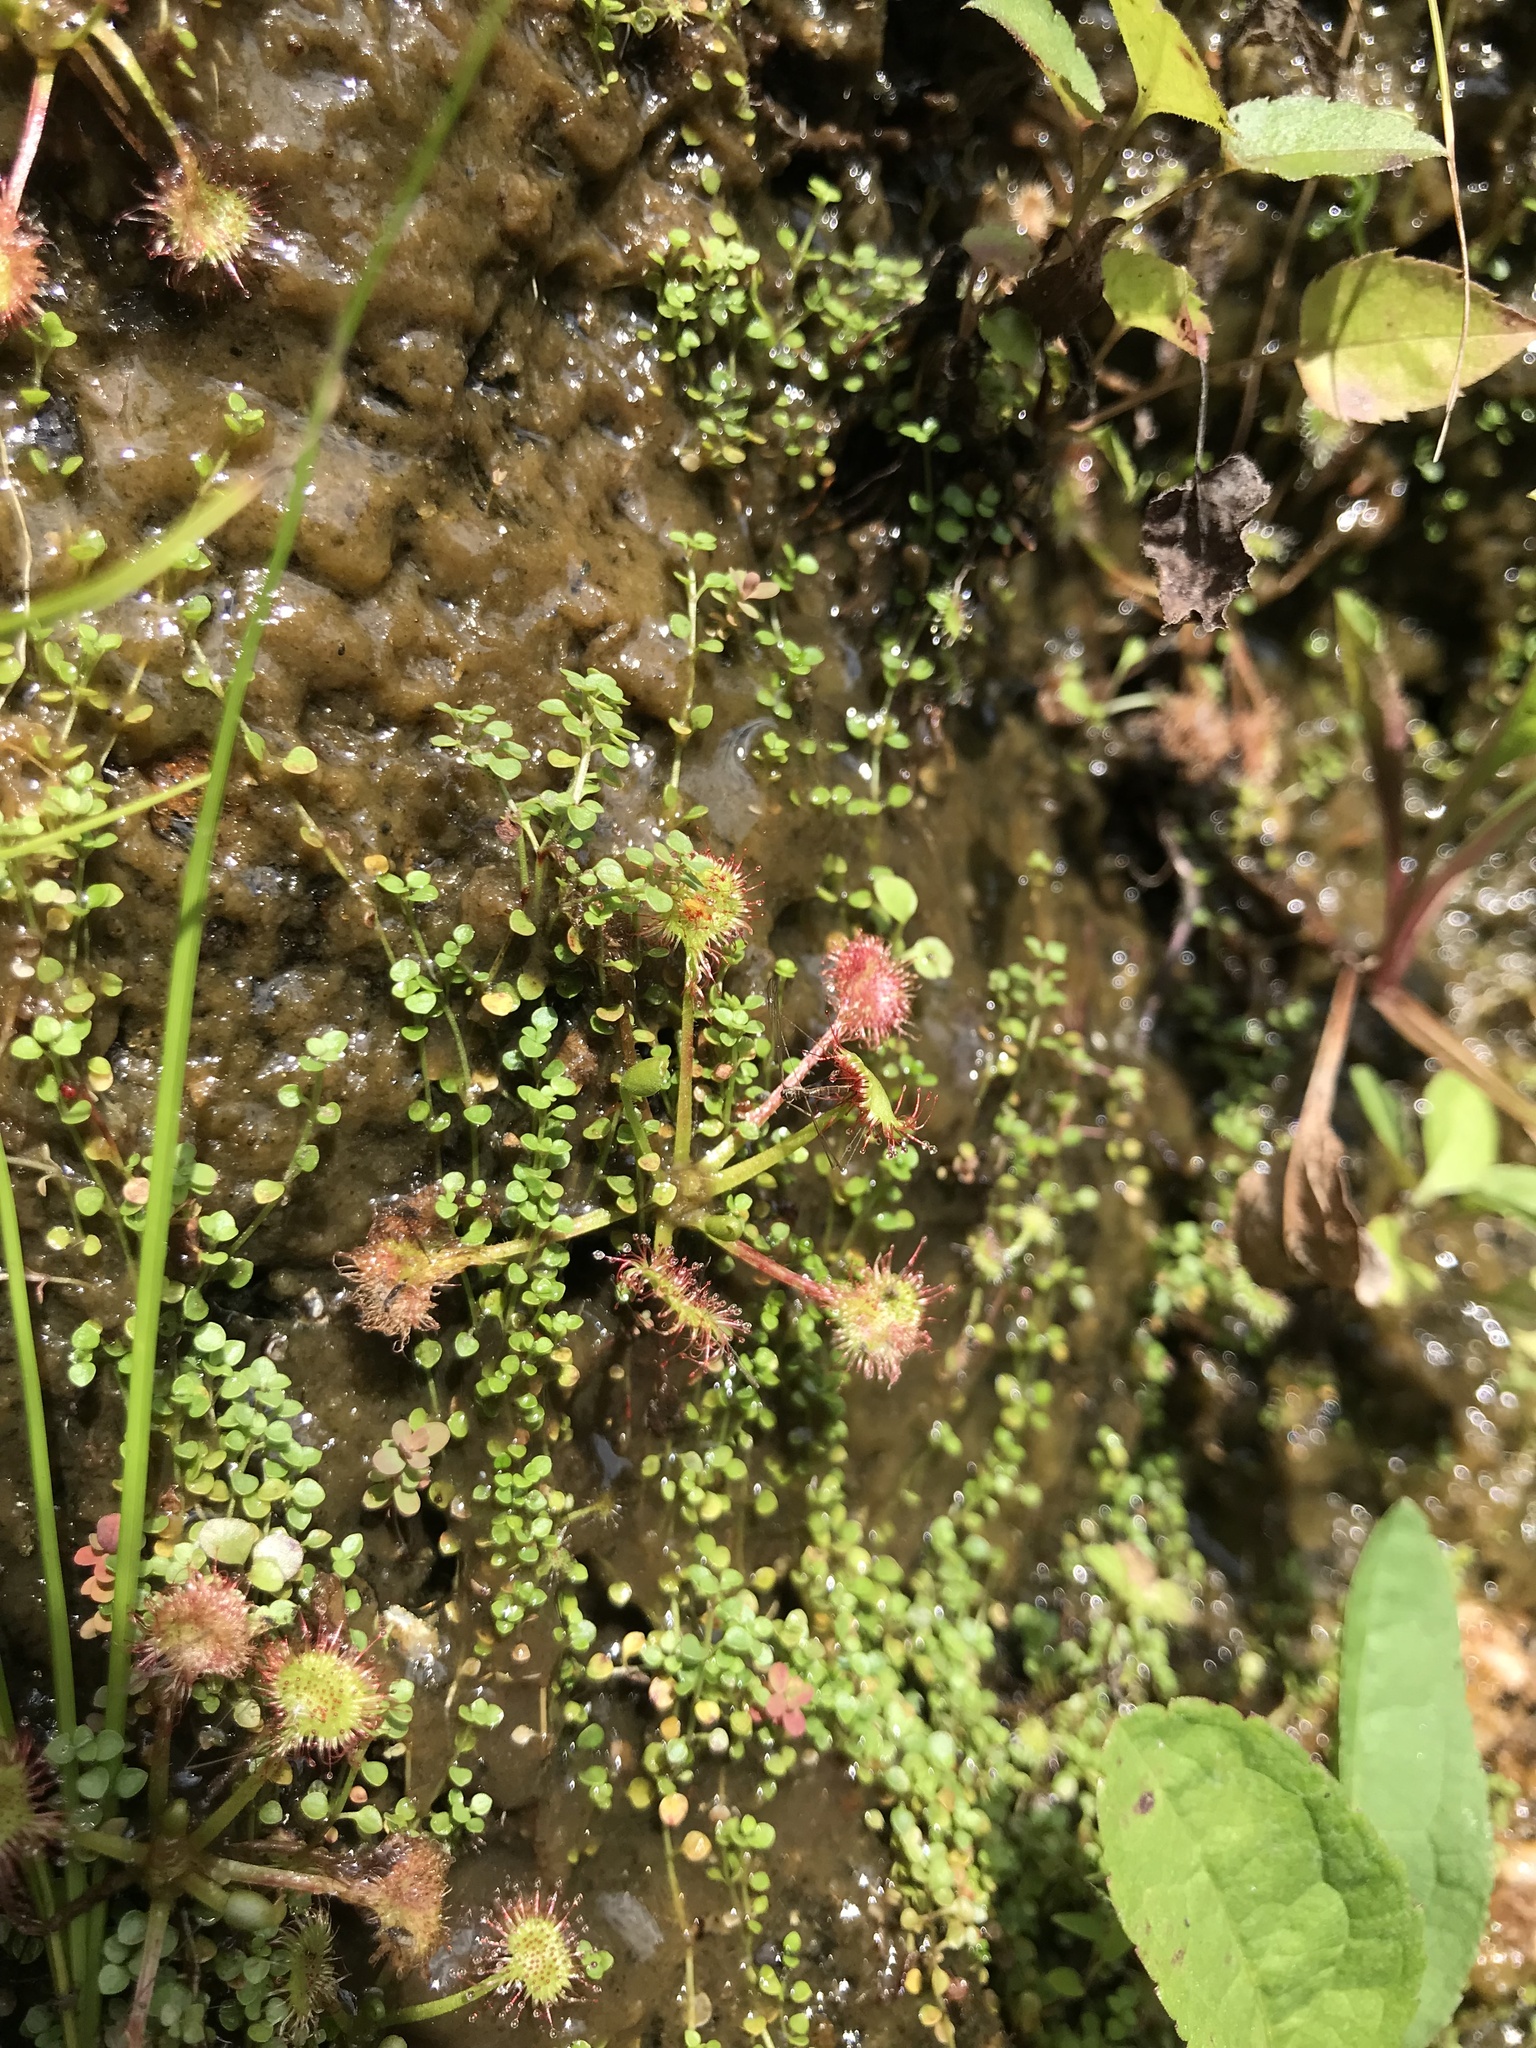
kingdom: Plantae
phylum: Tracheophyta
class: Magnoliopsida
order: Caryophyllales
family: Droseraceae
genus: Drosera
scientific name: Drosera rotundifolia
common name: Round-leaved sundew
